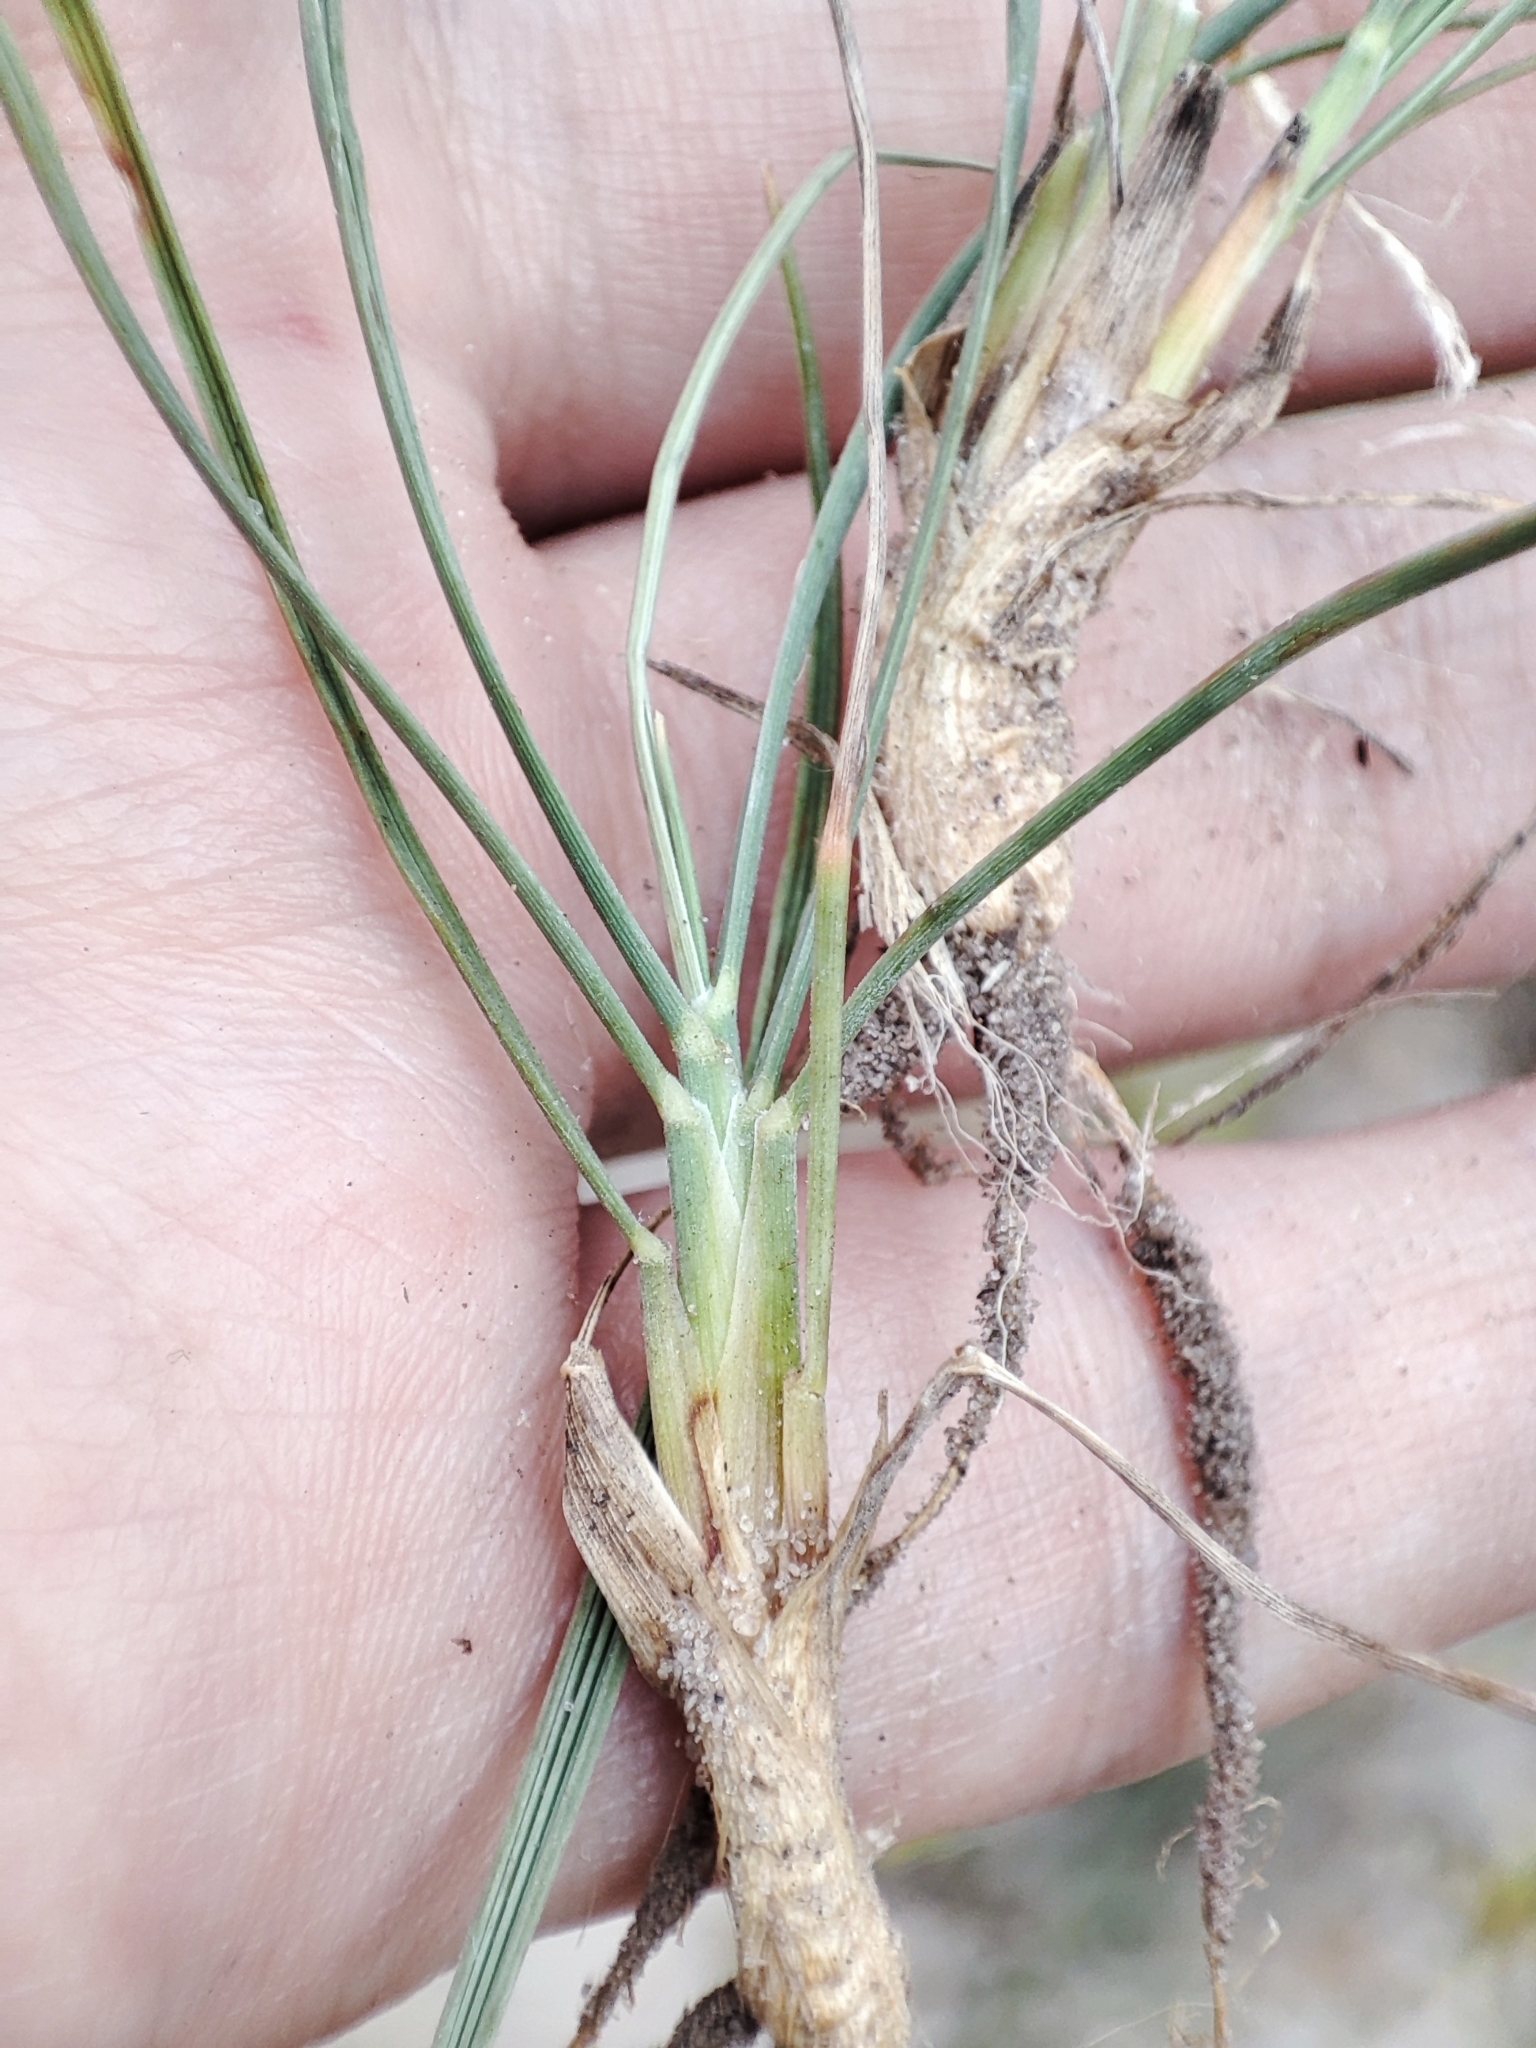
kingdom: Plantae
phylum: Tracheophyta
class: Liliopsida
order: Poales
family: Poaceae
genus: Koeleria
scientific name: Koeleria glauca
